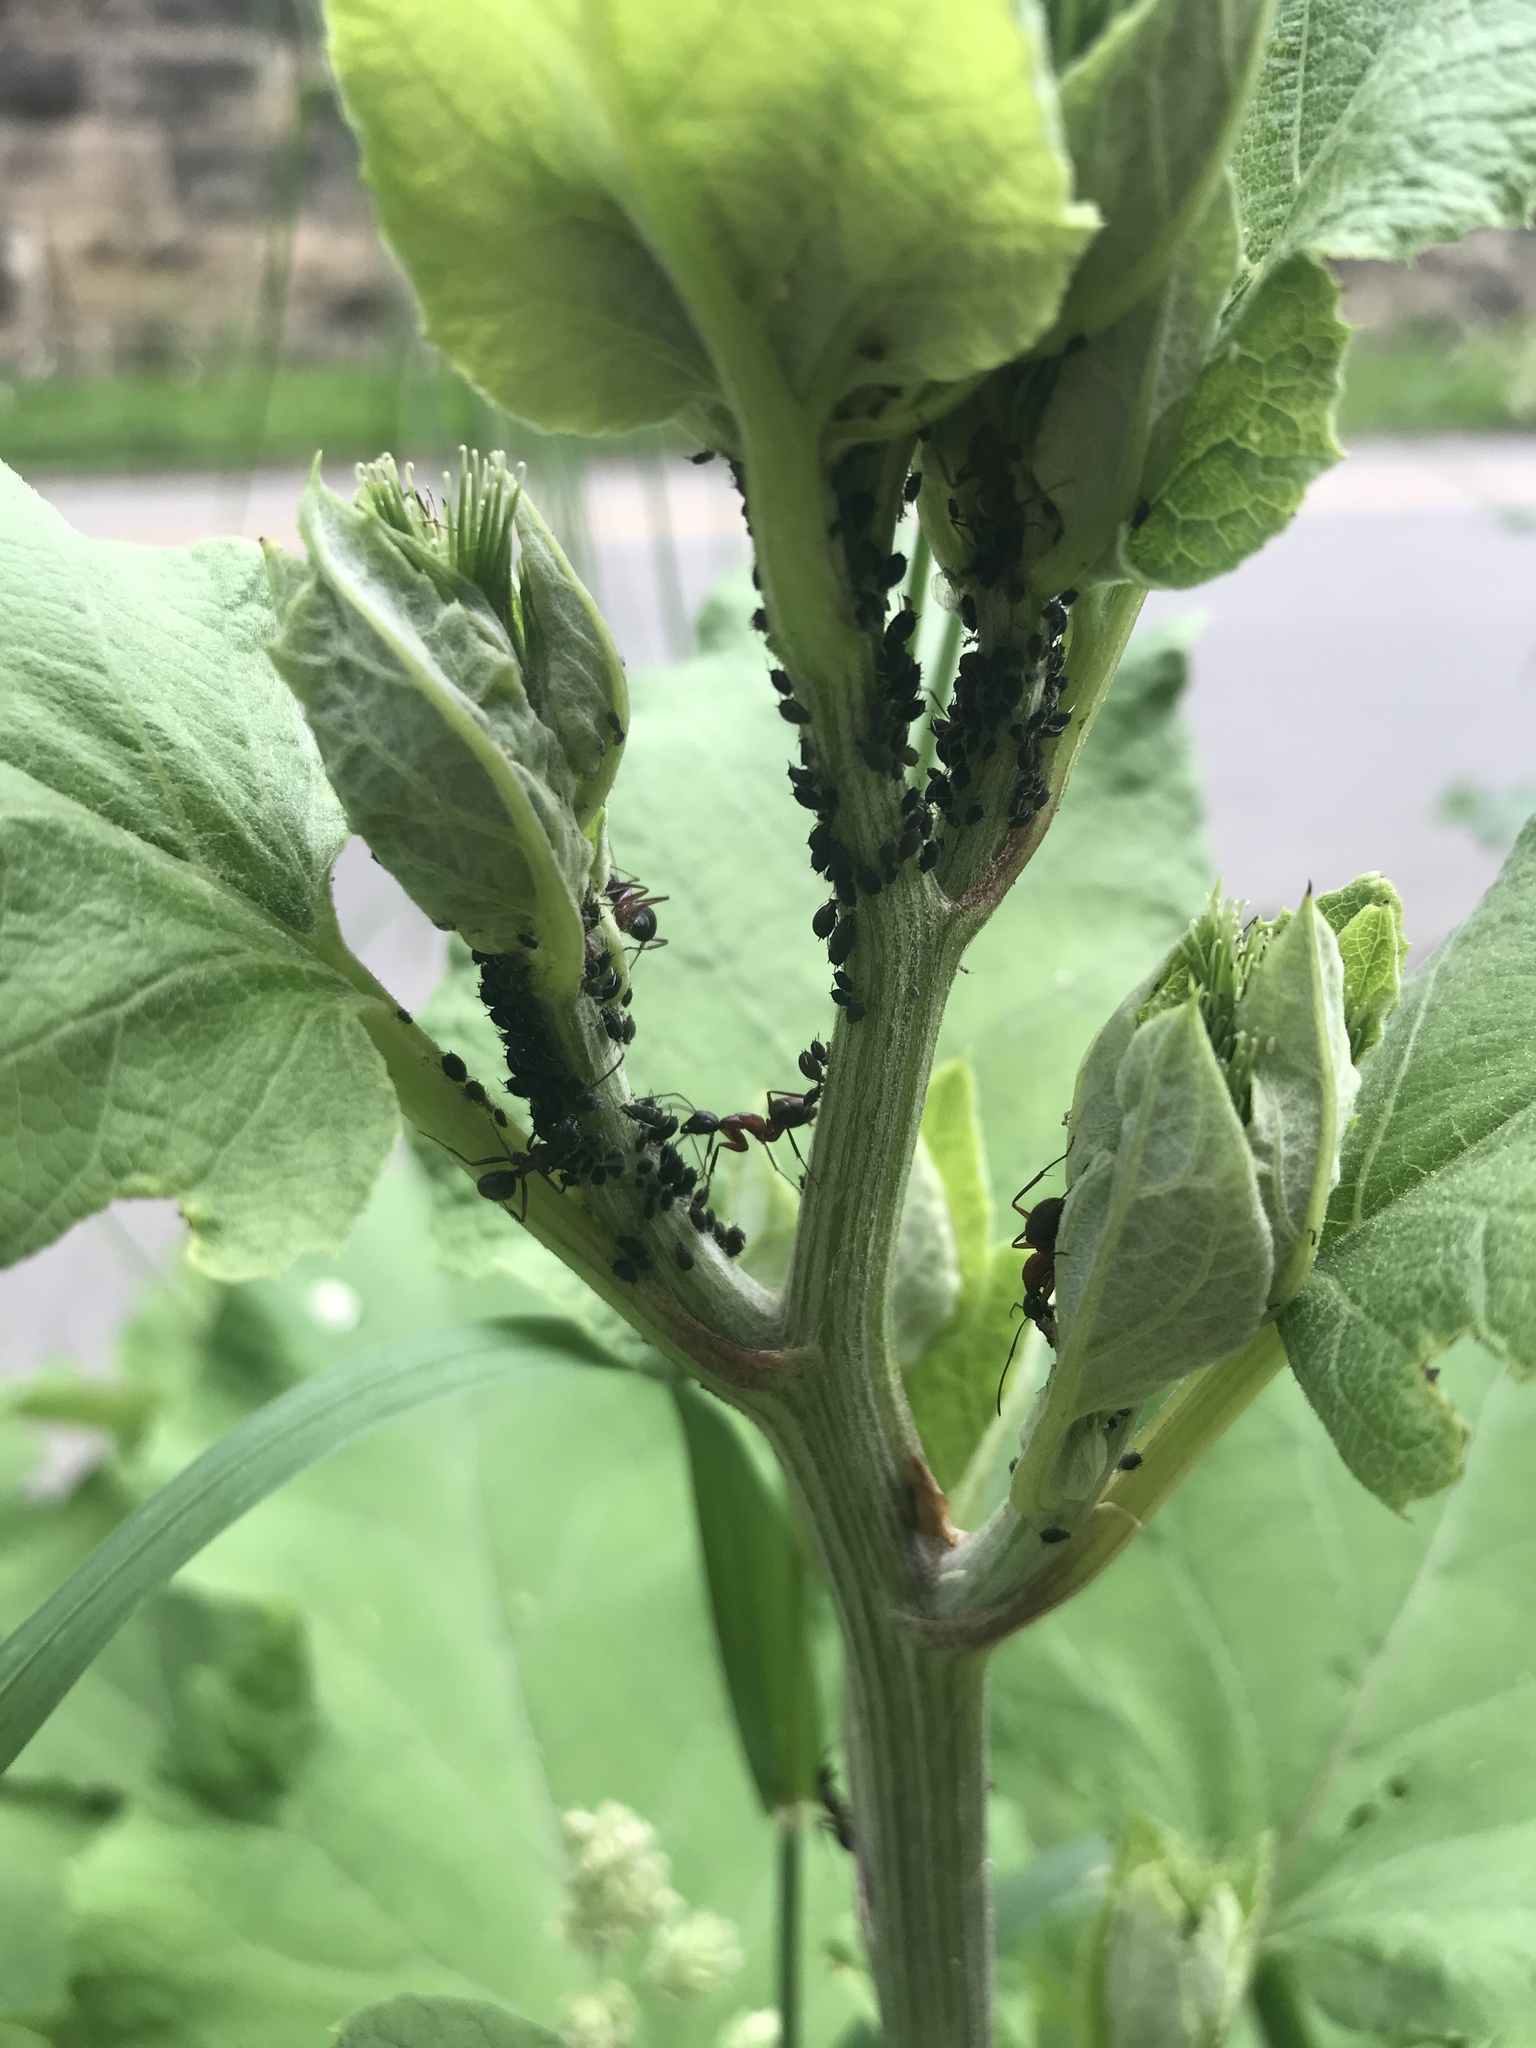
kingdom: Animalia
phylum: Arthropoda
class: Insecta
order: Hymenoptera
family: Formicidae
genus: Camponotus
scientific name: Camponotus chromaiodes
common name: Red carpenter ant
